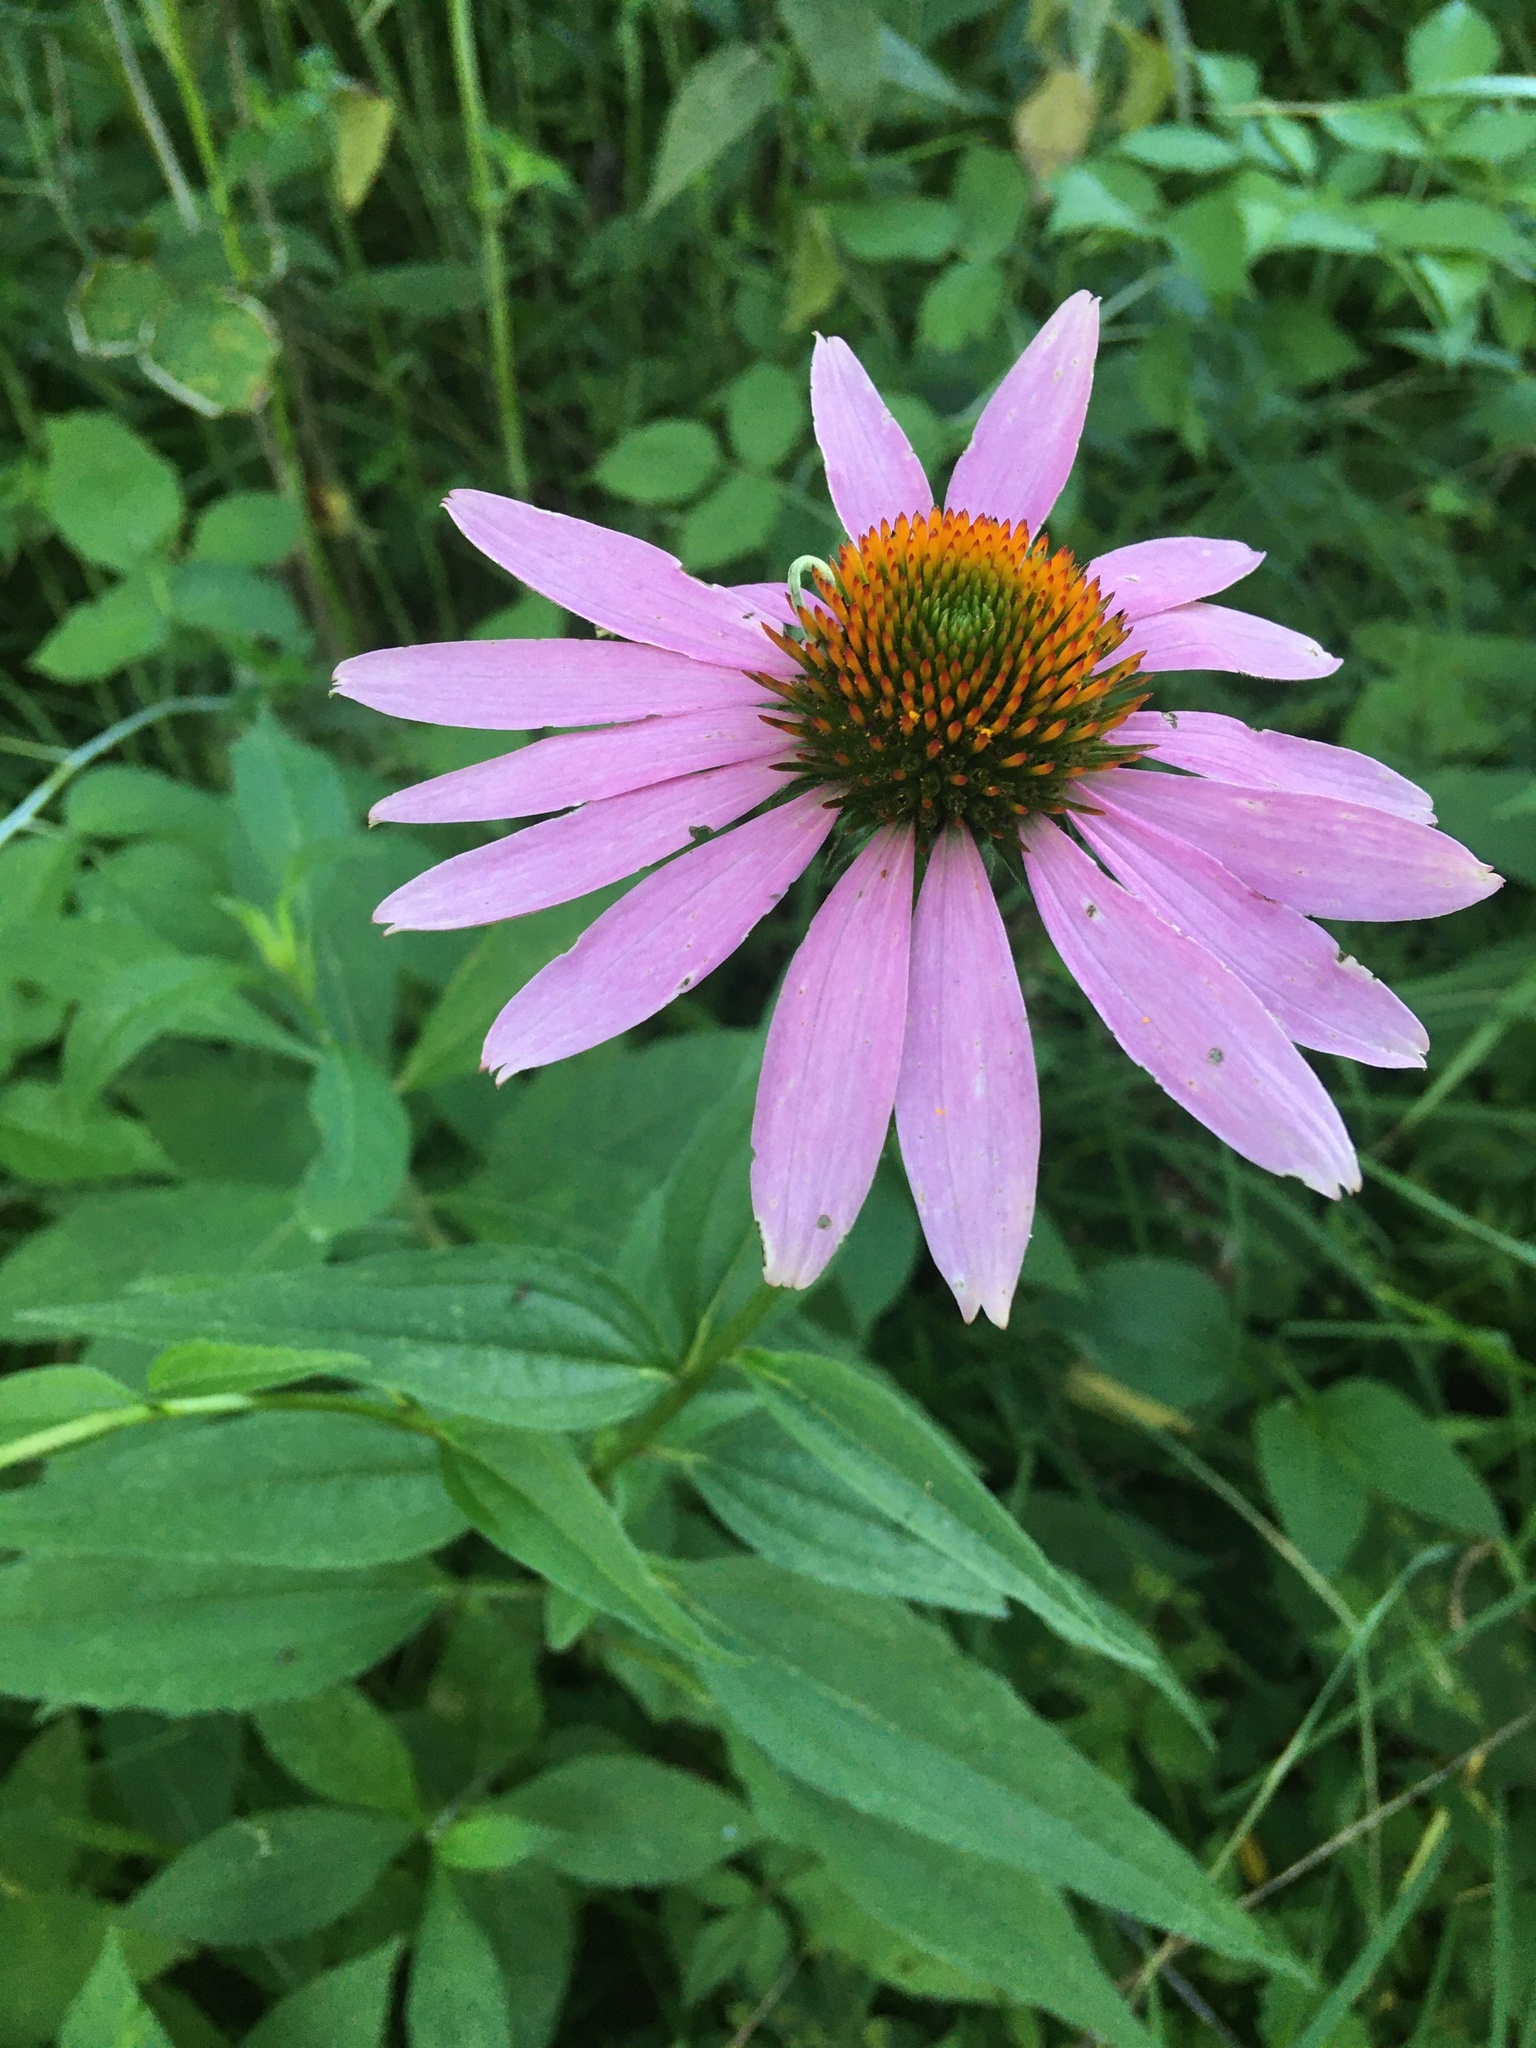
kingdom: Plantae
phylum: Tracheophyta
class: Magnoliopsida
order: Asterales
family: Asteraceae
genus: Echinacea
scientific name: Echinacea purpurea
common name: Broad-leaved purple coneflower
